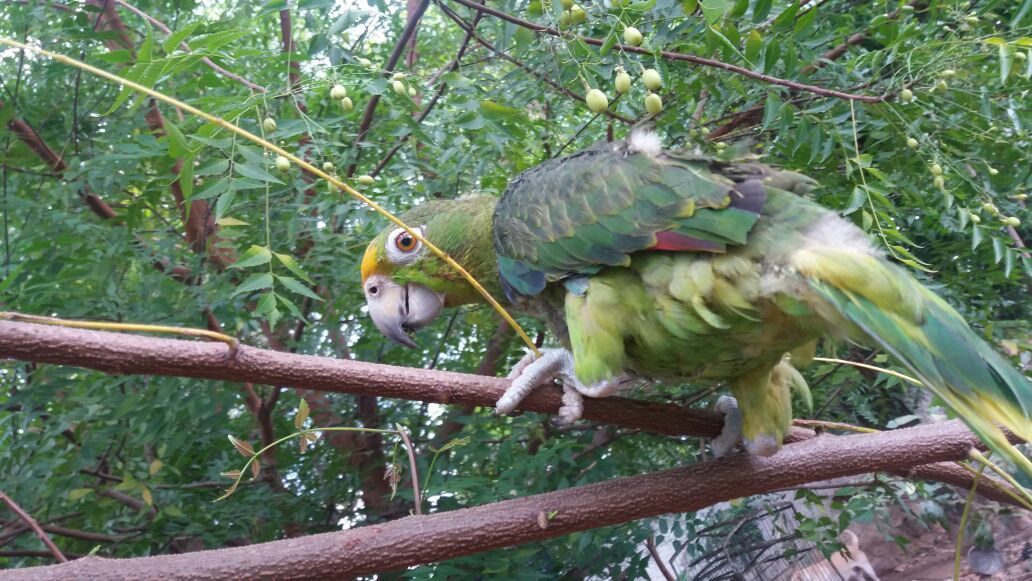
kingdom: Animalia
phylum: Chordata
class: Aves
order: Psittaciformes
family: Psittacidae
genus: Amazona
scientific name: Amazona ochrocephala
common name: Yellow-crowned amazon
